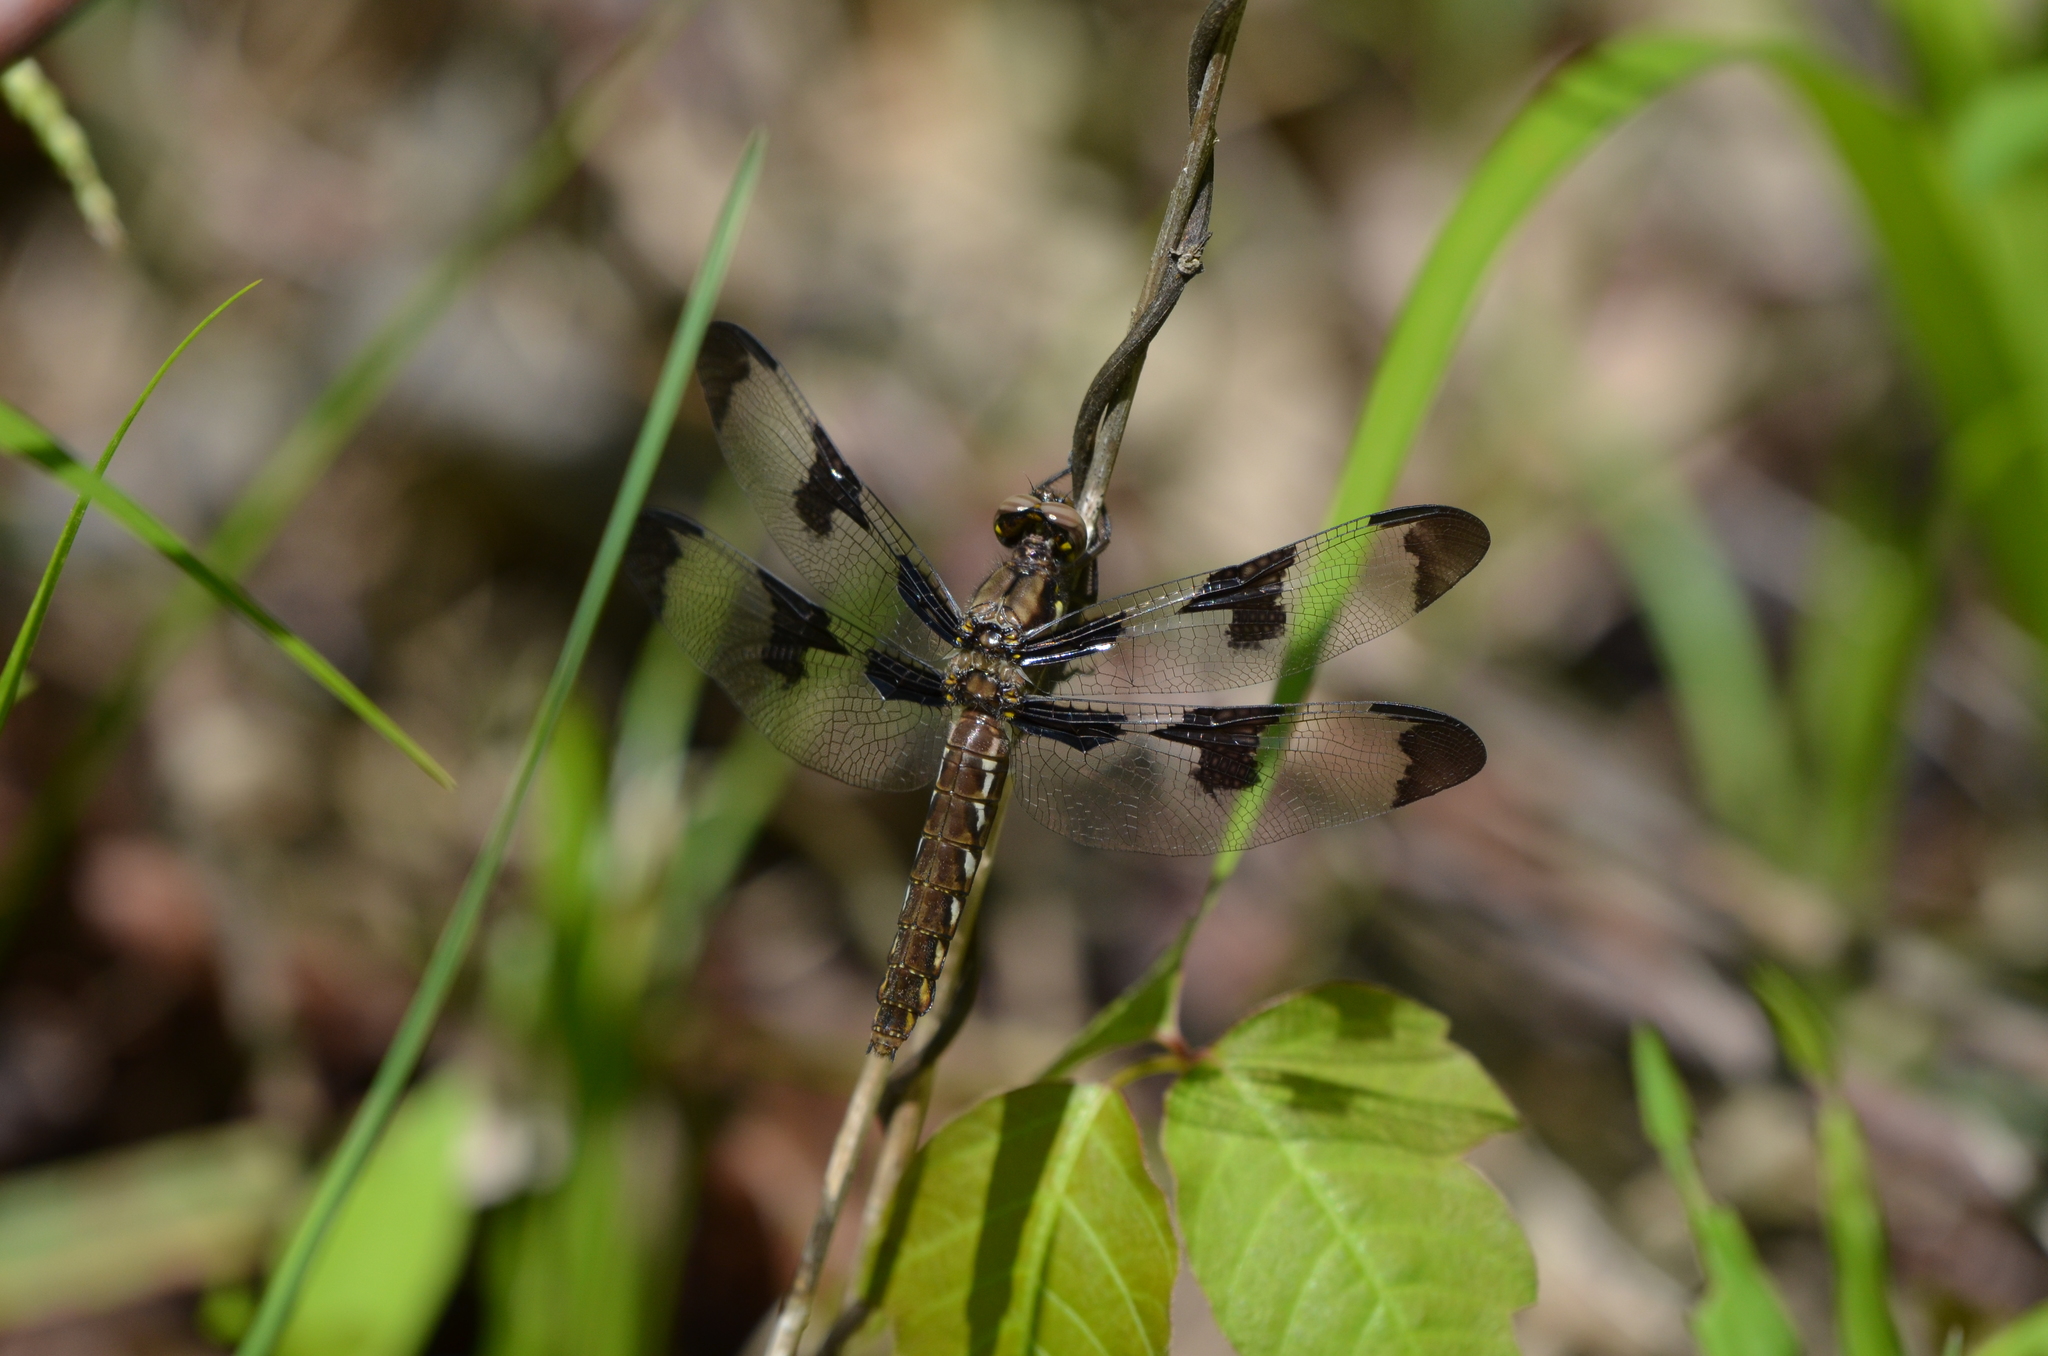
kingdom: Animalia
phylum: Arthropoda
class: Insecta
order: Odonata
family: Libellulidae
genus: Plathemis
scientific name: Plathemis lydia
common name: Common whitetail
